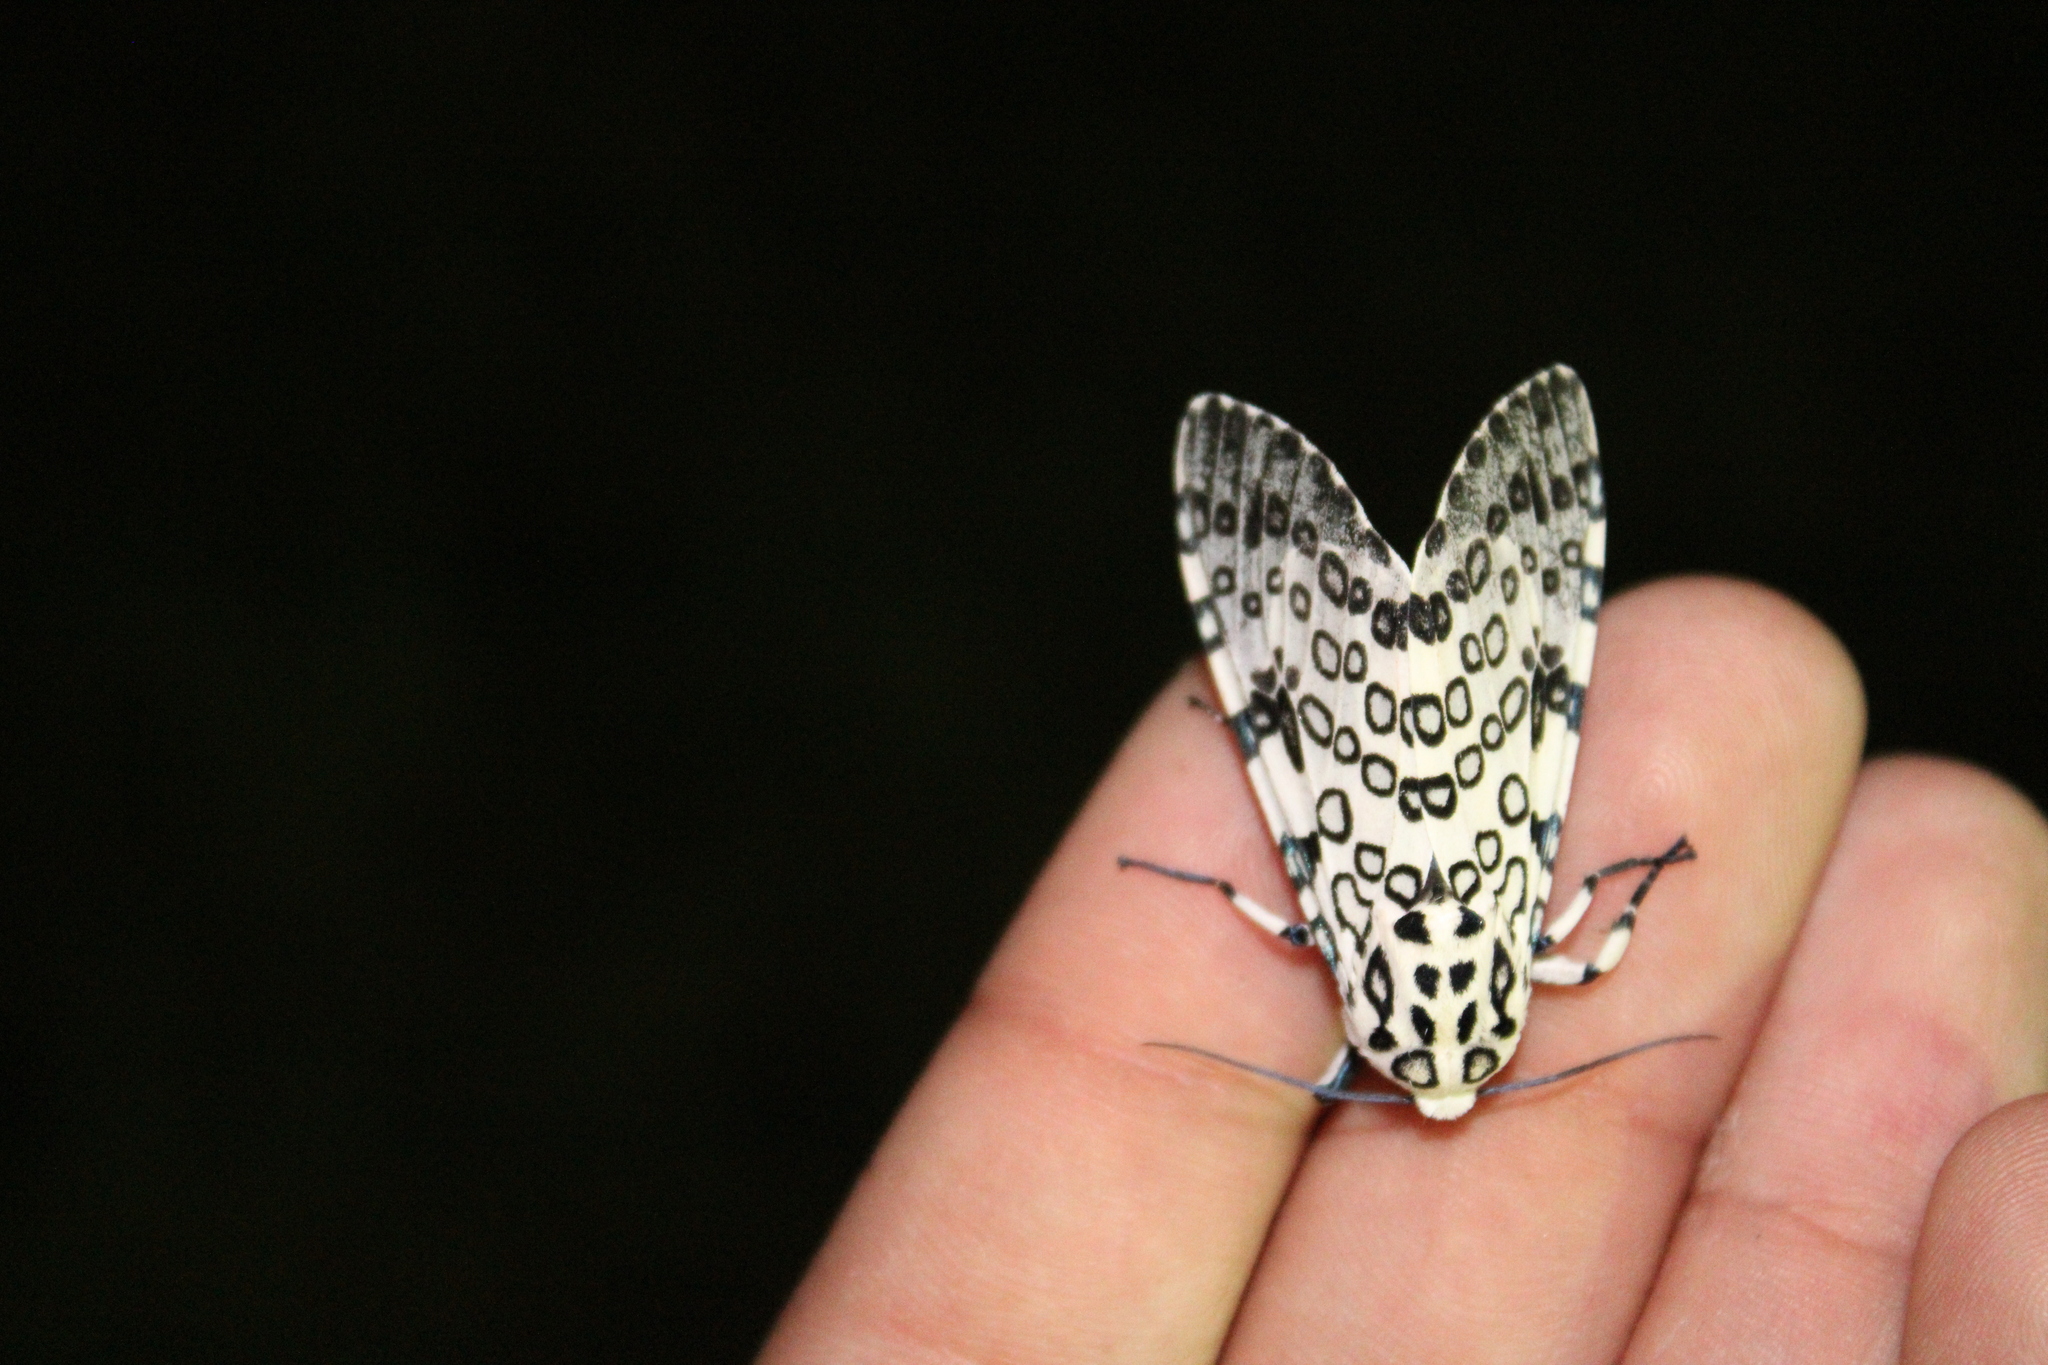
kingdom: Animalia
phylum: Arthropoda
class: Insecta
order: Lepidoptera
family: Erebidae
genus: Hypercompe
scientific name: Hypercompe scribonia
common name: Giant leopard moth
